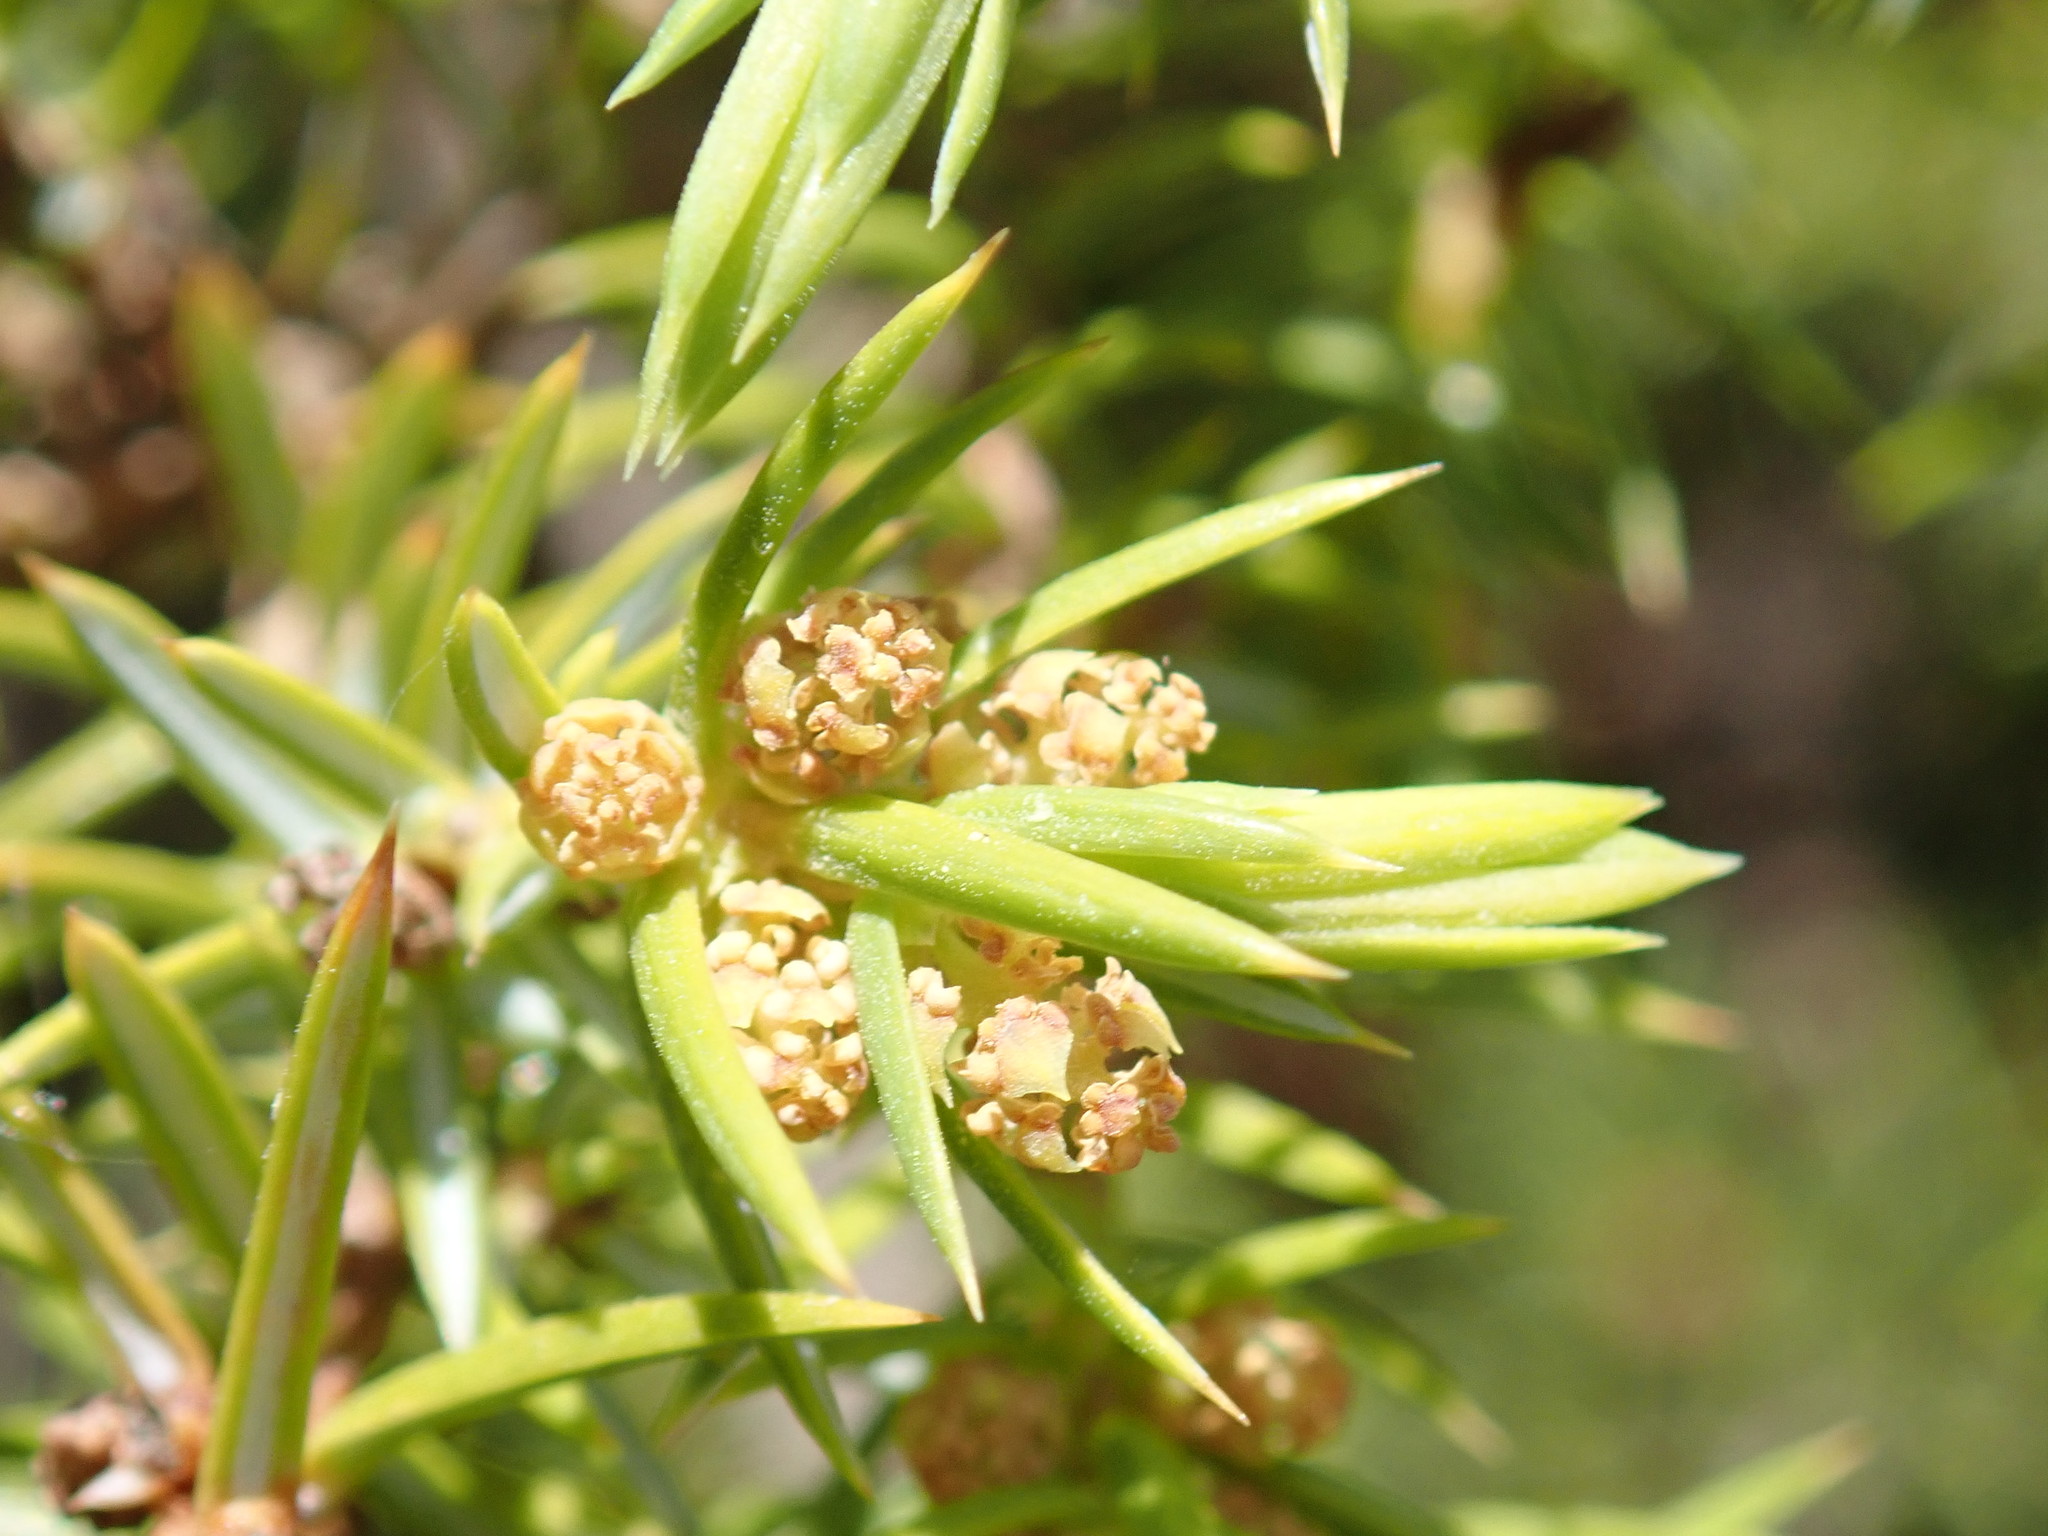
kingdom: Plantae
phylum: Tracheophyta
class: Pinopsida
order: Pinales
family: Cupressaceae
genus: Juniperus
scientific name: Juniperus communis
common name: Common juniper
